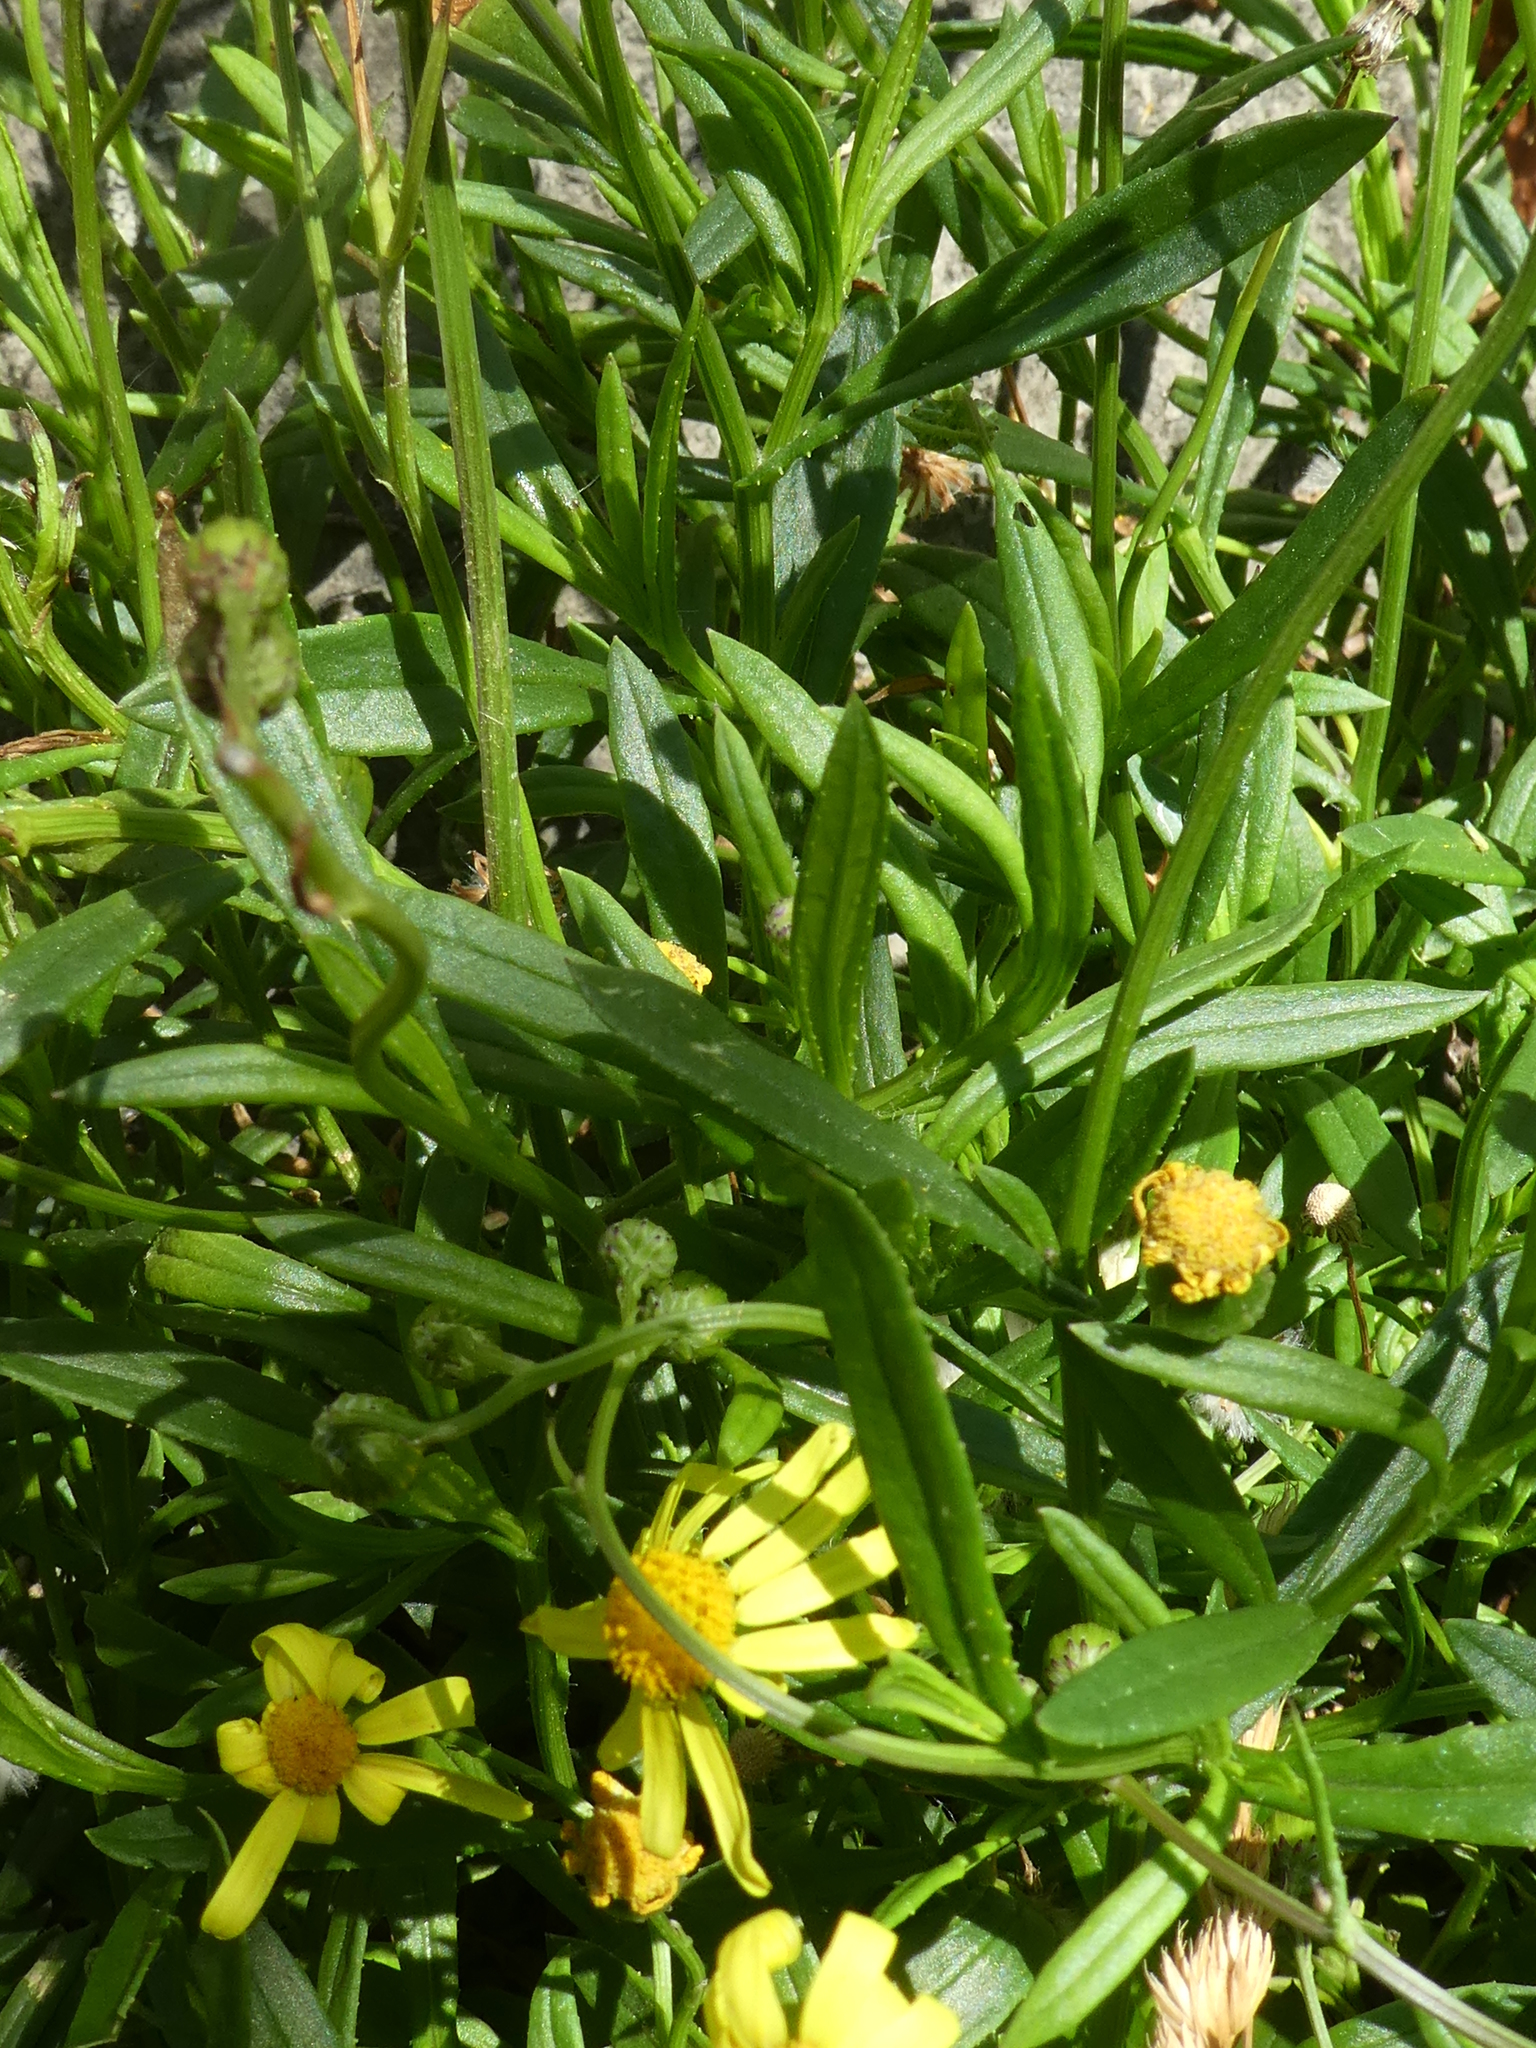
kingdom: Plantae
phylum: Tracheophyta
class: Magnoliopsida
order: Asterales
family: Asteraceae
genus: Senecio
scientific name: Senecio skirrhodon
